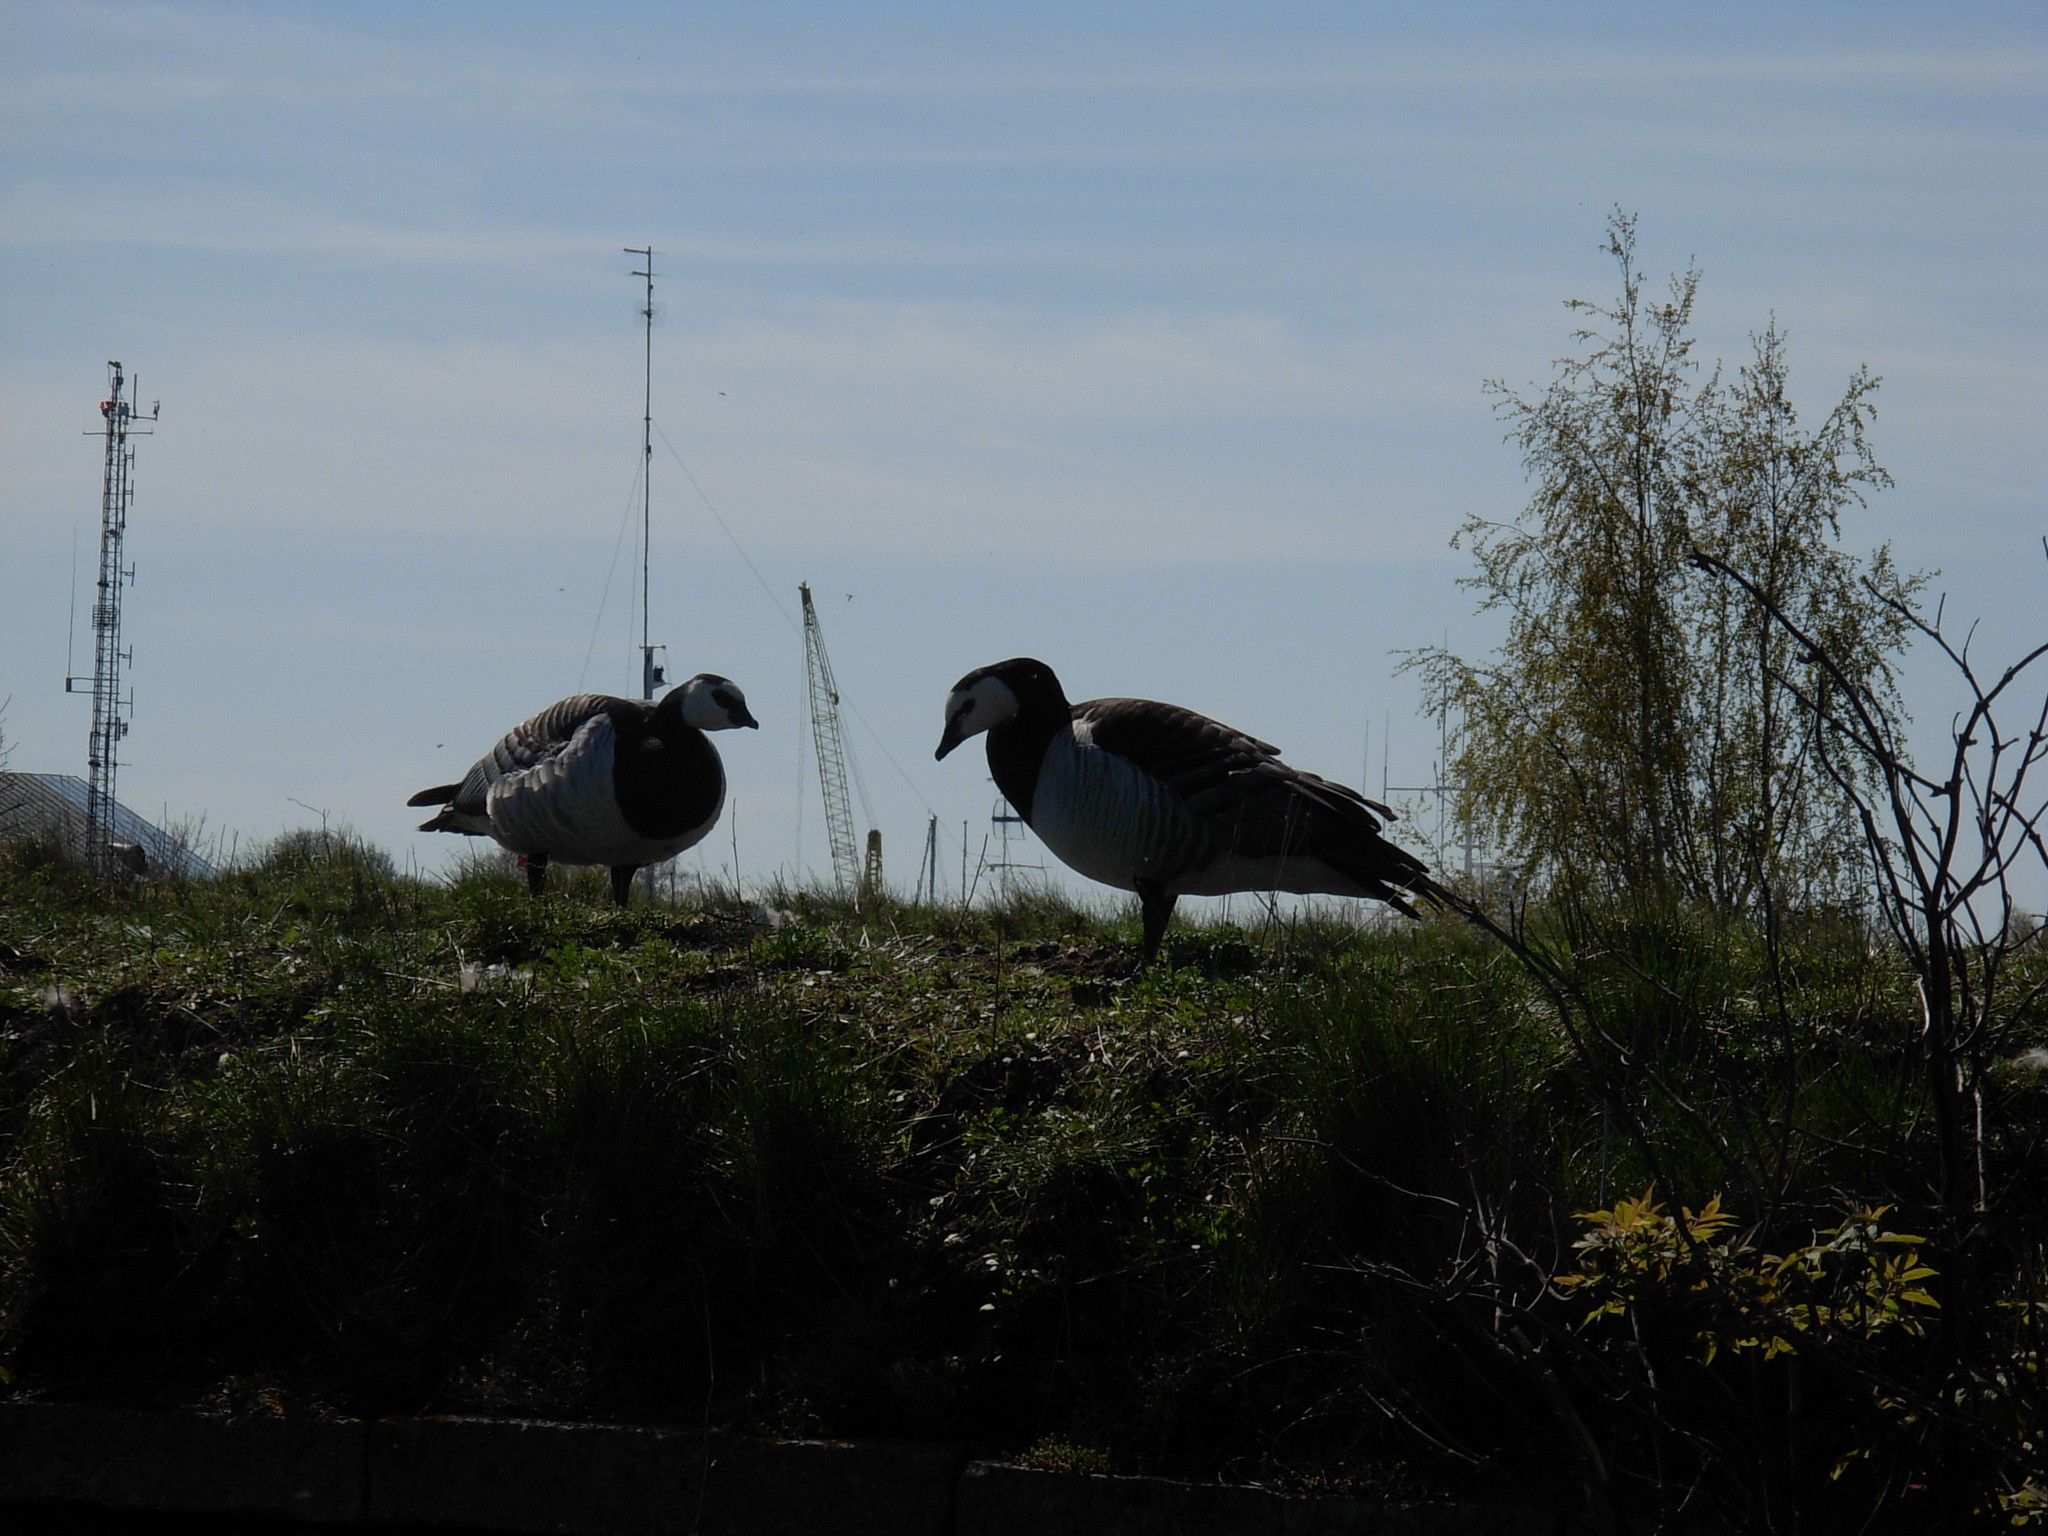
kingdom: Animalia
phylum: Chordata
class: Aves
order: Anseriformes
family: Anatidae
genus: Branta
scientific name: Branta leucopsis
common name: Barnacle goose
